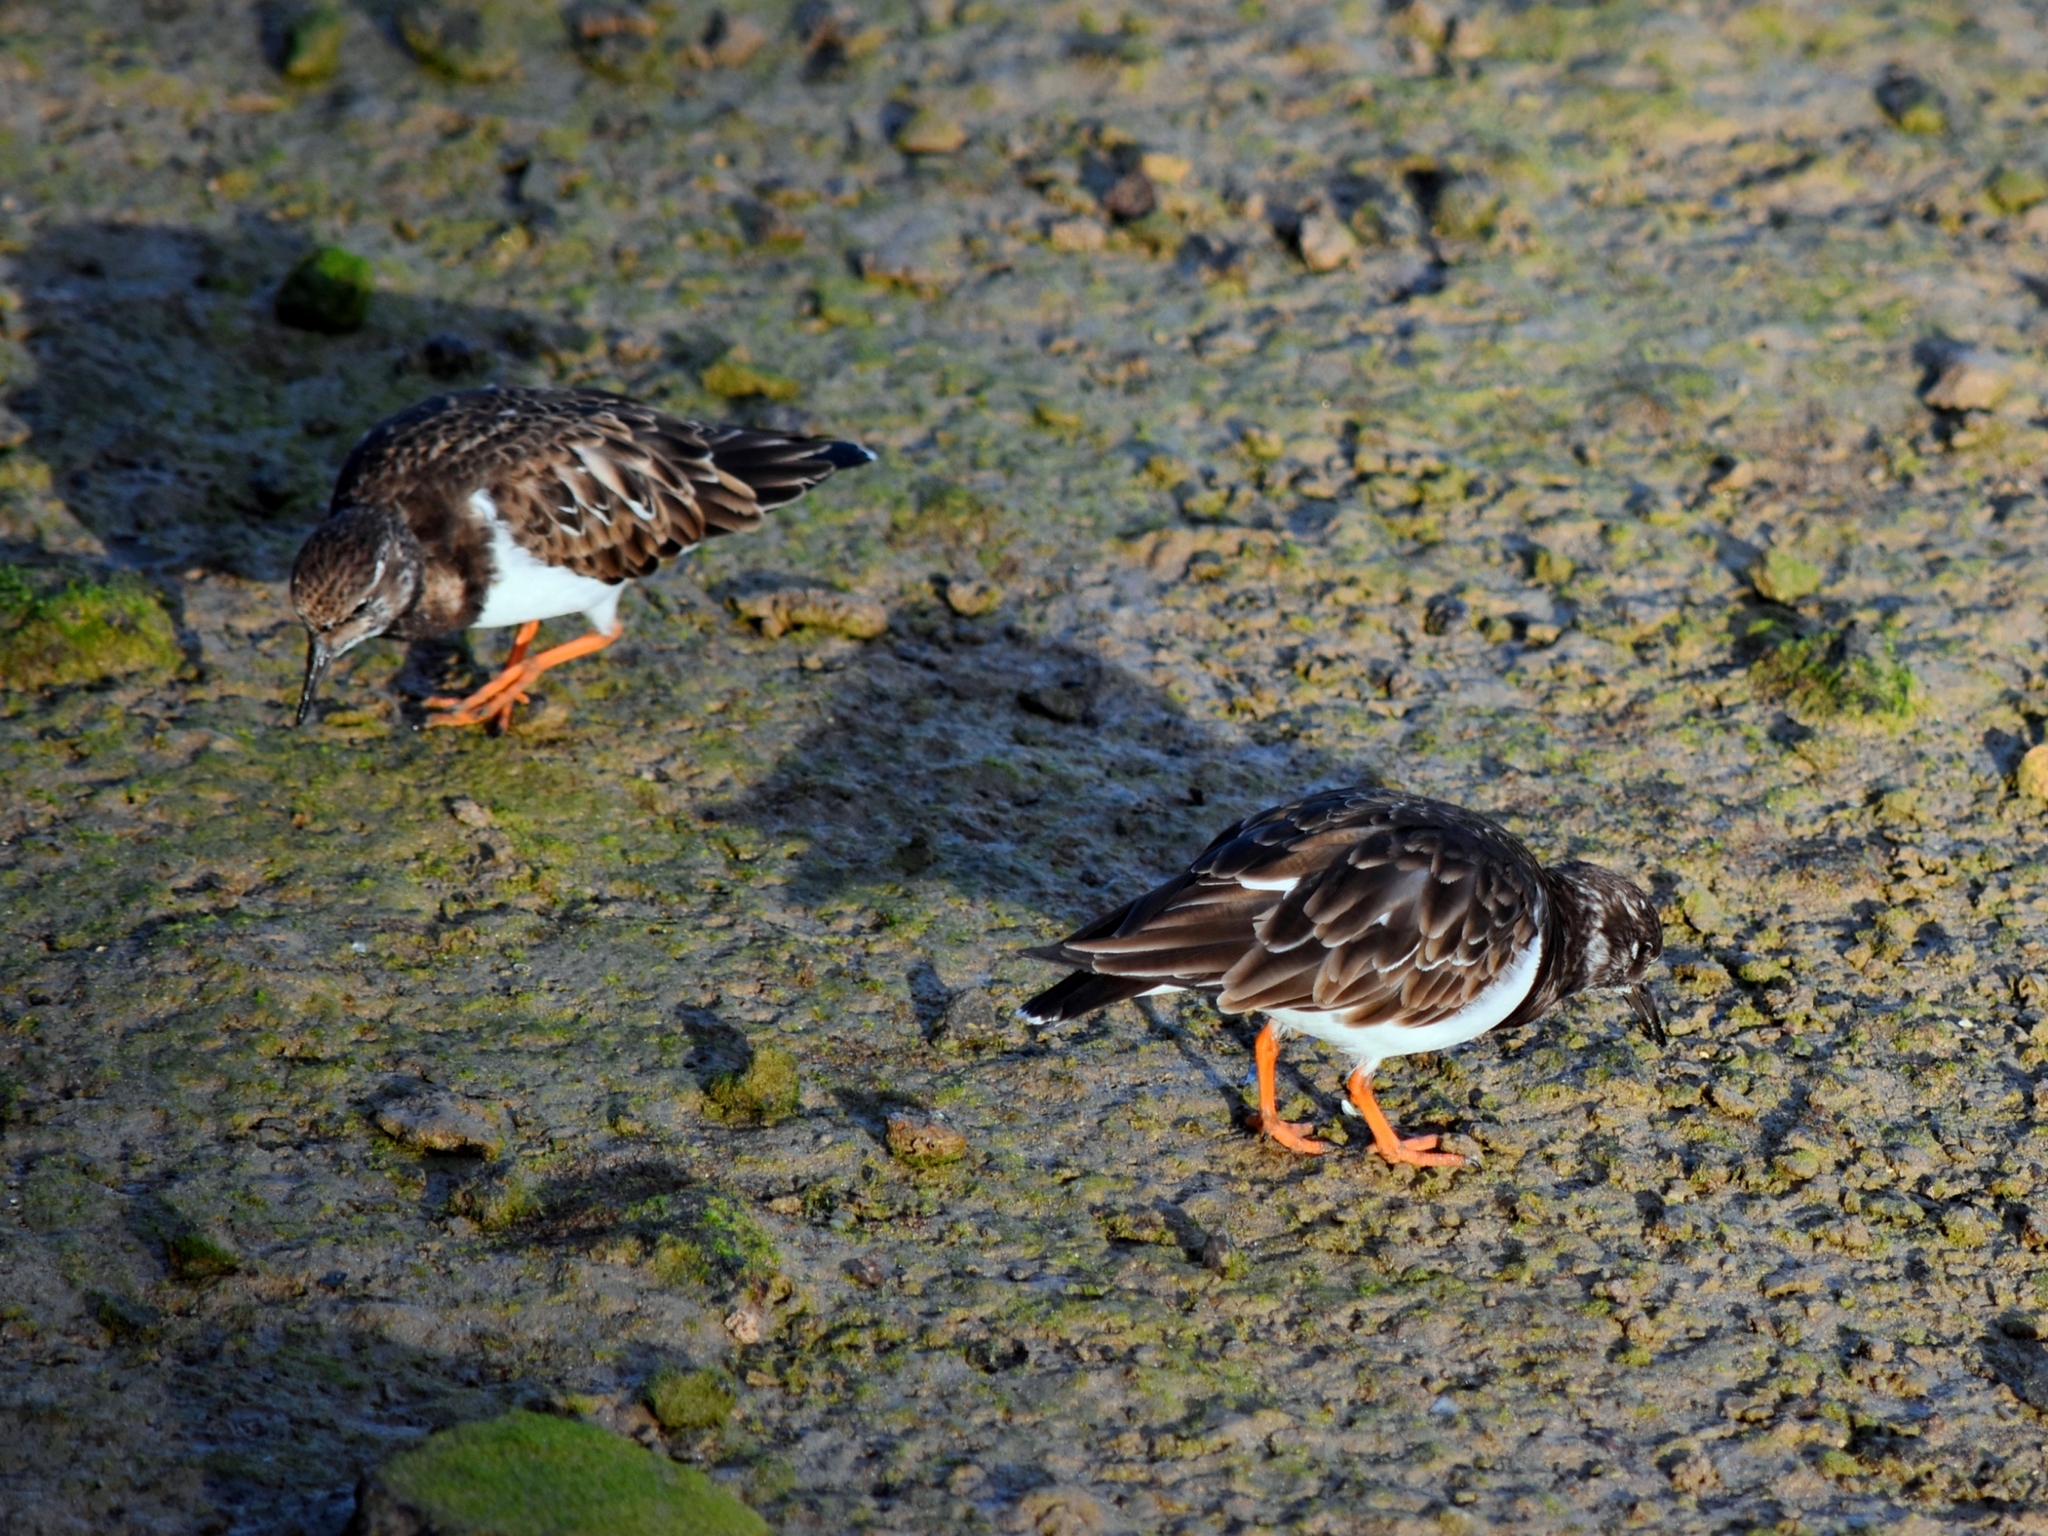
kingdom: Animalia
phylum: Chordata
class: Aves
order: Charadriiformes
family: Scolopacidae
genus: Arenaria
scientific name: Arenaria interpres
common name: Ruddy turnstone
